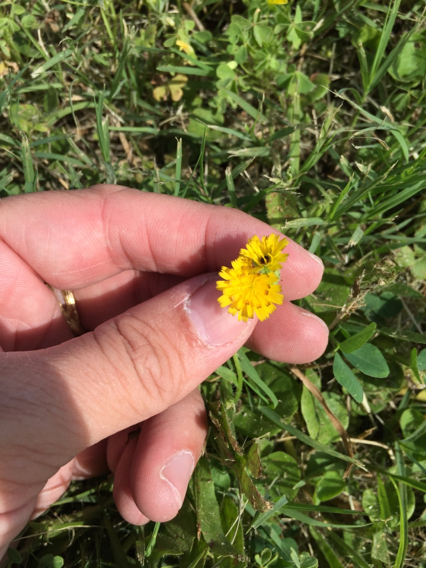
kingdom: Plantae
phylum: Tracheophyta
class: Magnoliopsida
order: Asterales
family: Asteraceae
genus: Hedypnois
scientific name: Hedypnois rhagadioloides
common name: Cretan weed
